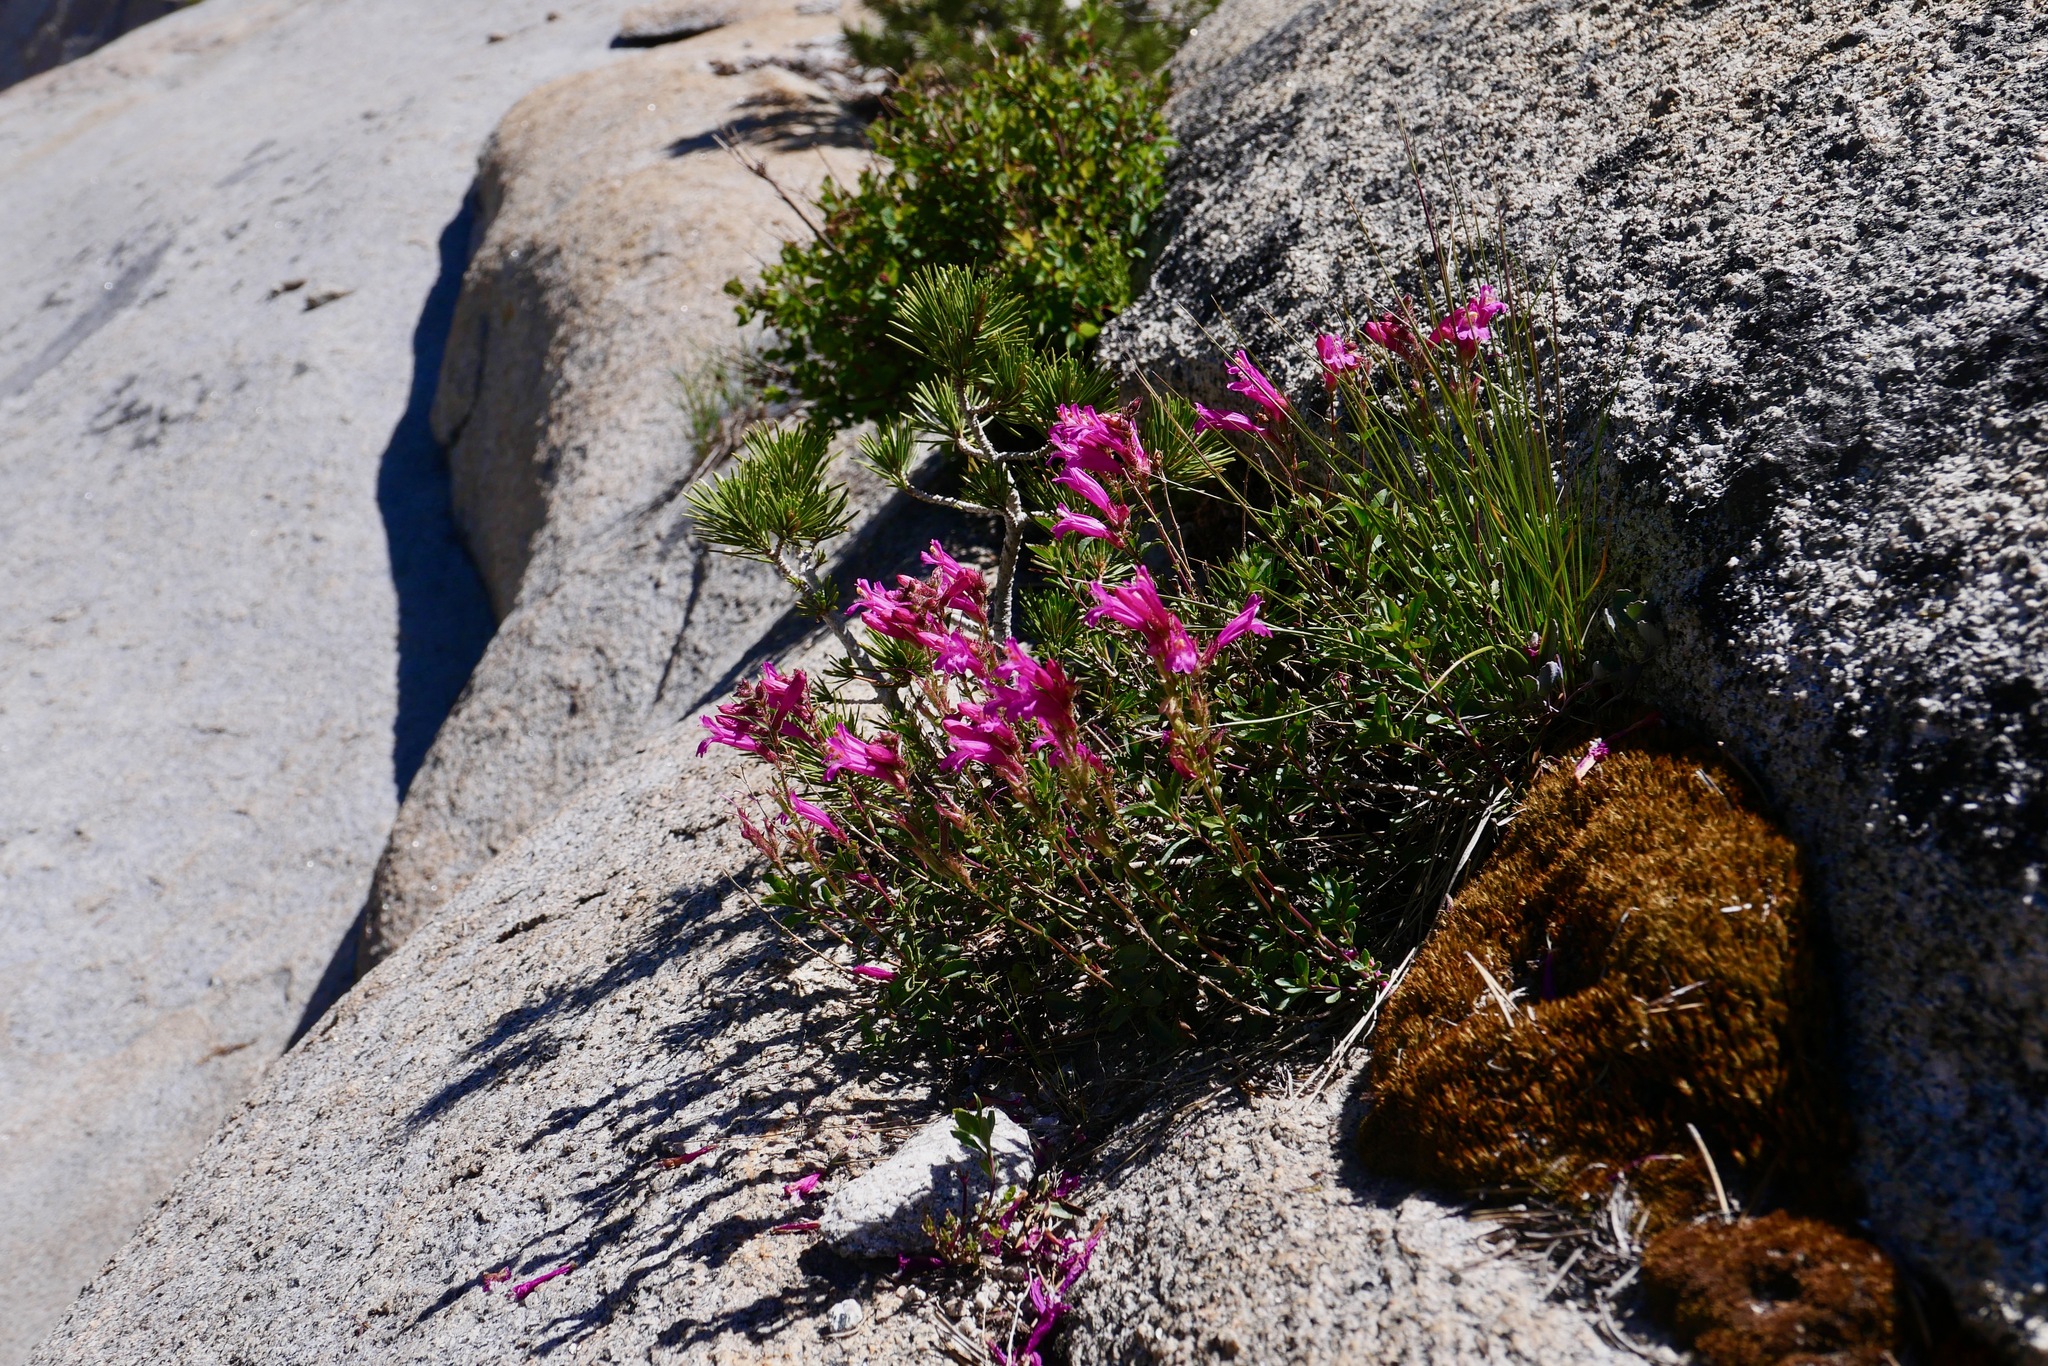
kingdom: Plantae
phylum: Tracheophyta
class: Magnoliopsida
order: Lamiales
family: Plantaginaceae
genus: Penstemon
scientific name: Penstemon newberryi
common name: Mountain-pride
